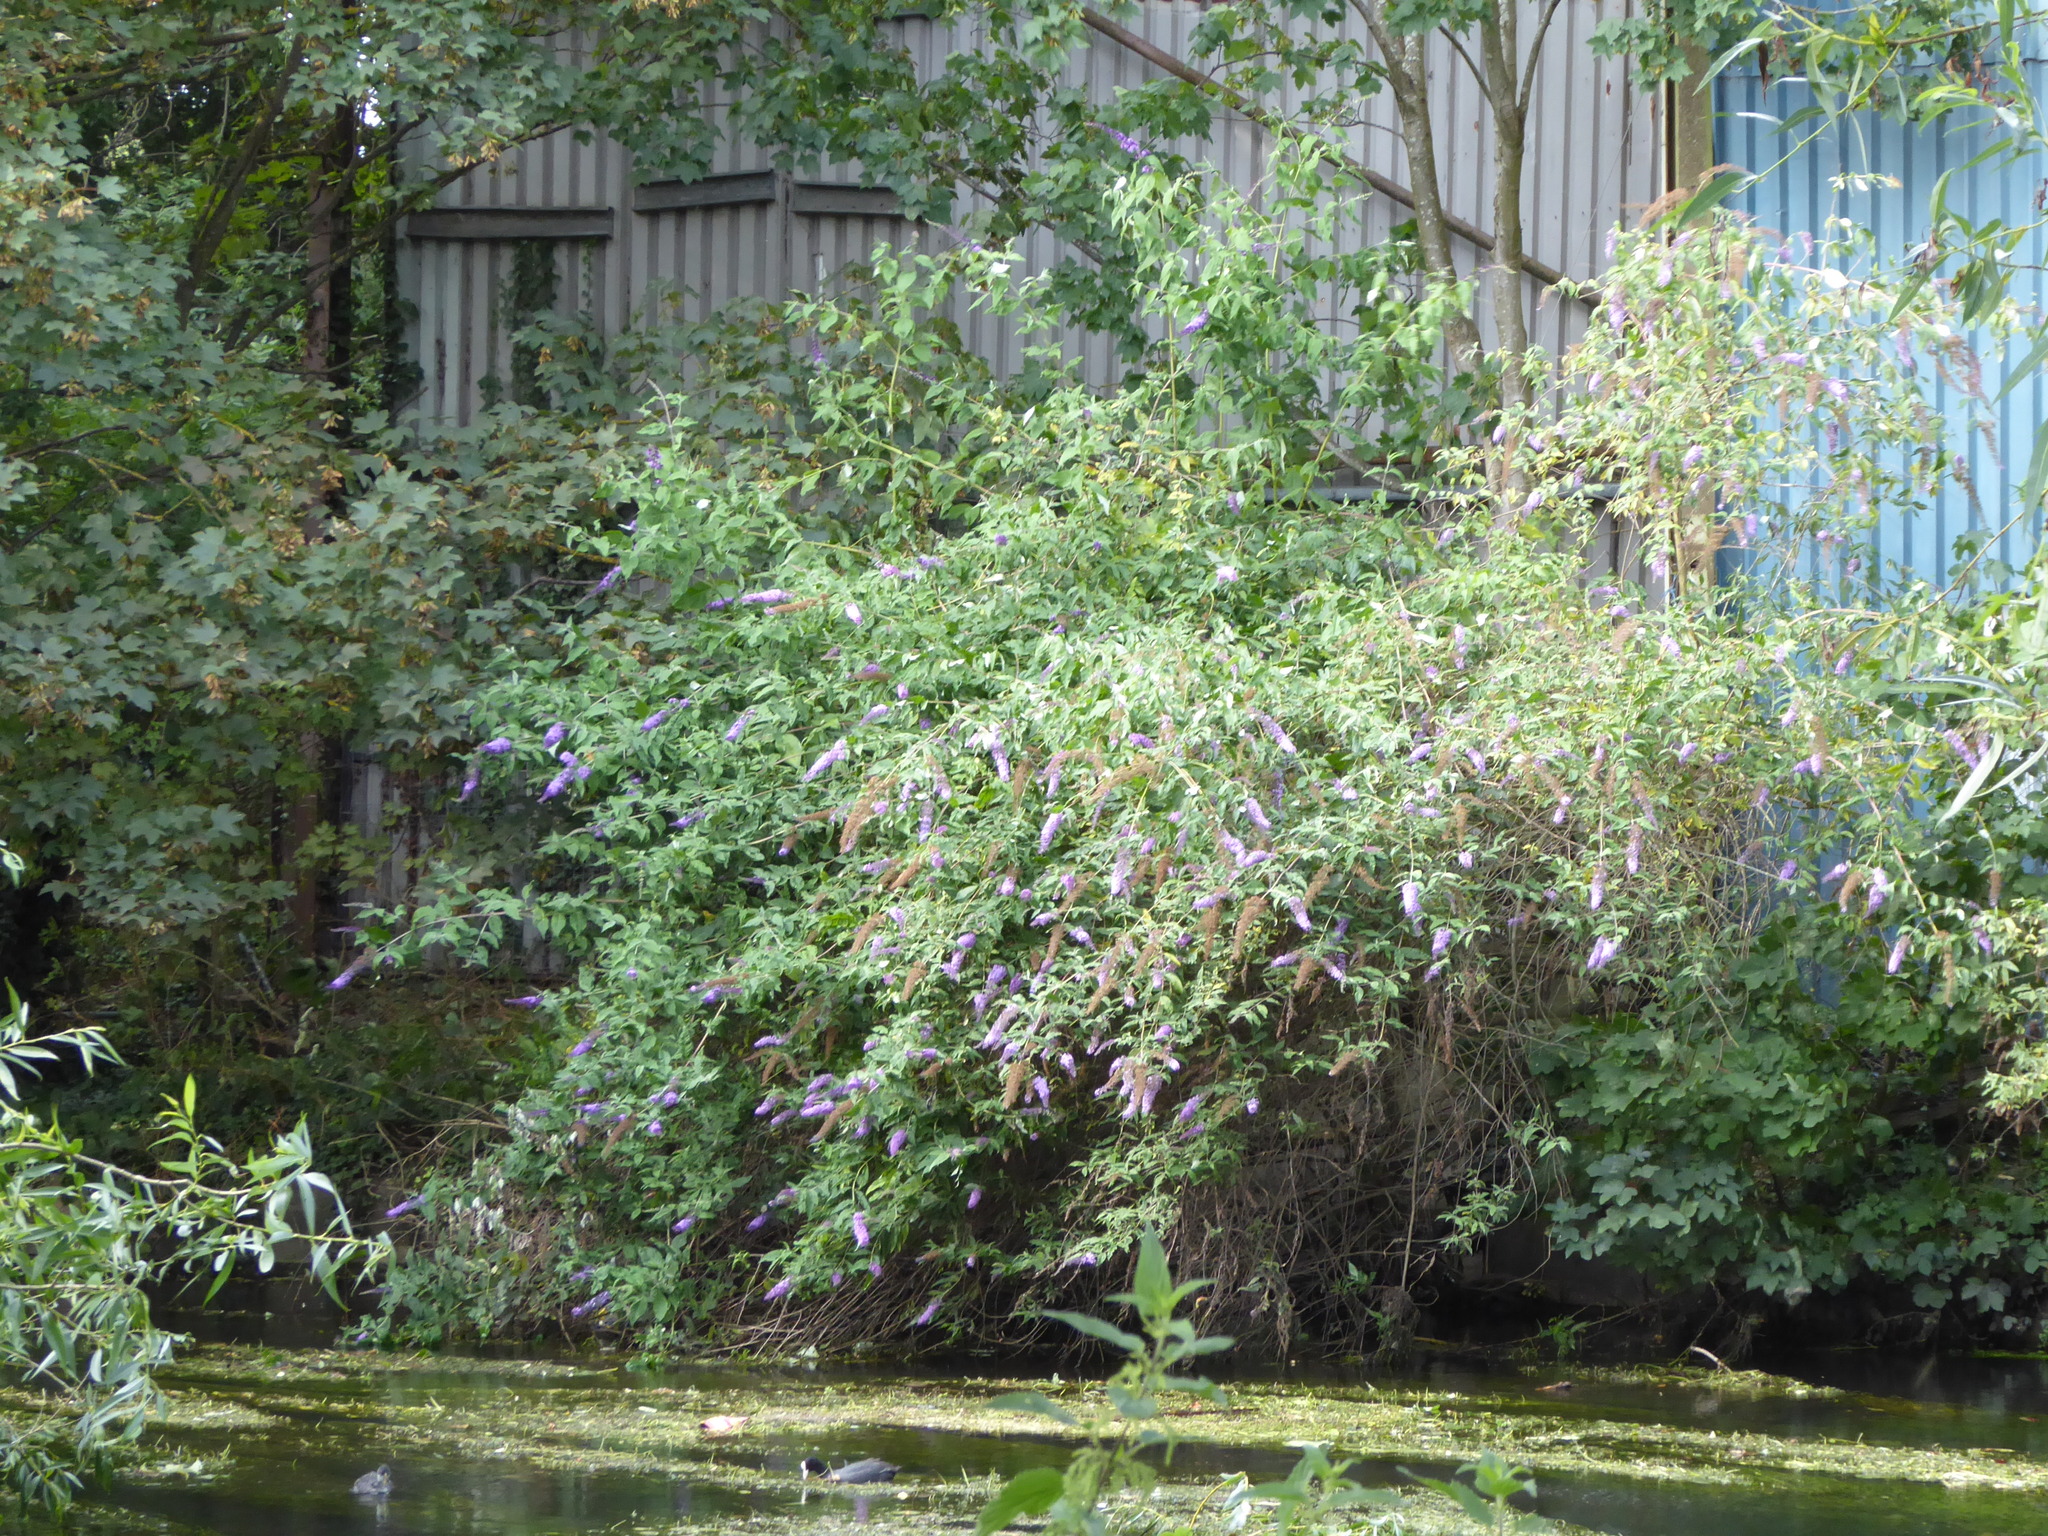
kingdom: Plantae
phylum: Tracheophyta
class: Magnoliopsida
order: Lamiales
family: Scrophulariaceae
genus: Buddleja
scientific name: Buddleja davidii
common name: Butterfly-bush
